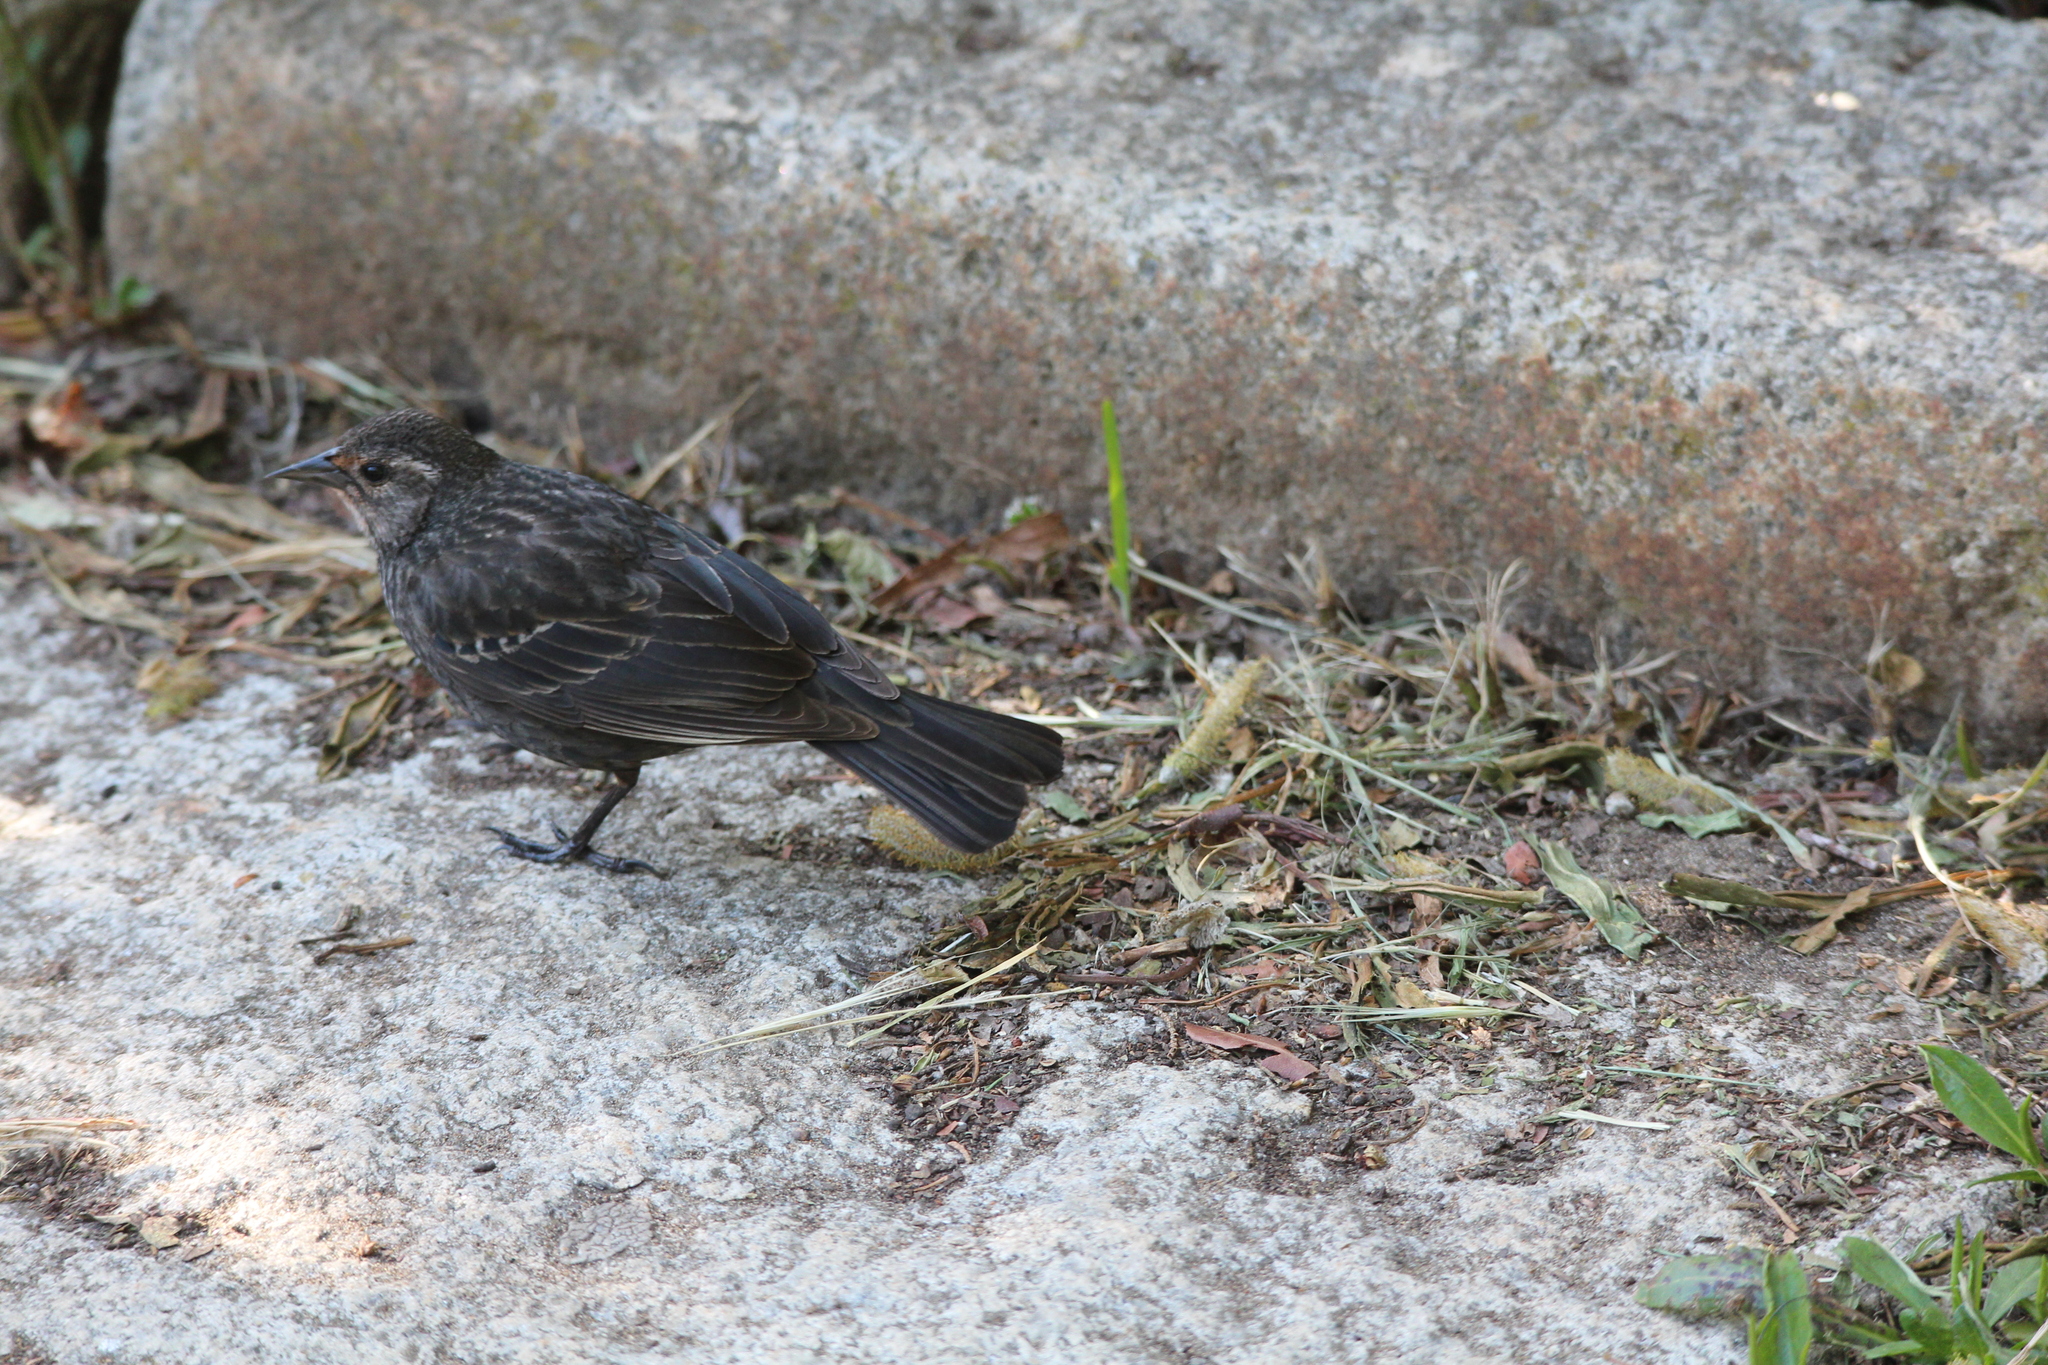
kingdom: Animalia
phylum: Chordata
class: Aves
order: Passeriformes
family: Icteridae
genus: Agelaius
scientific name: Agelaius phoeniceus
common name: Red-winged blackbird
